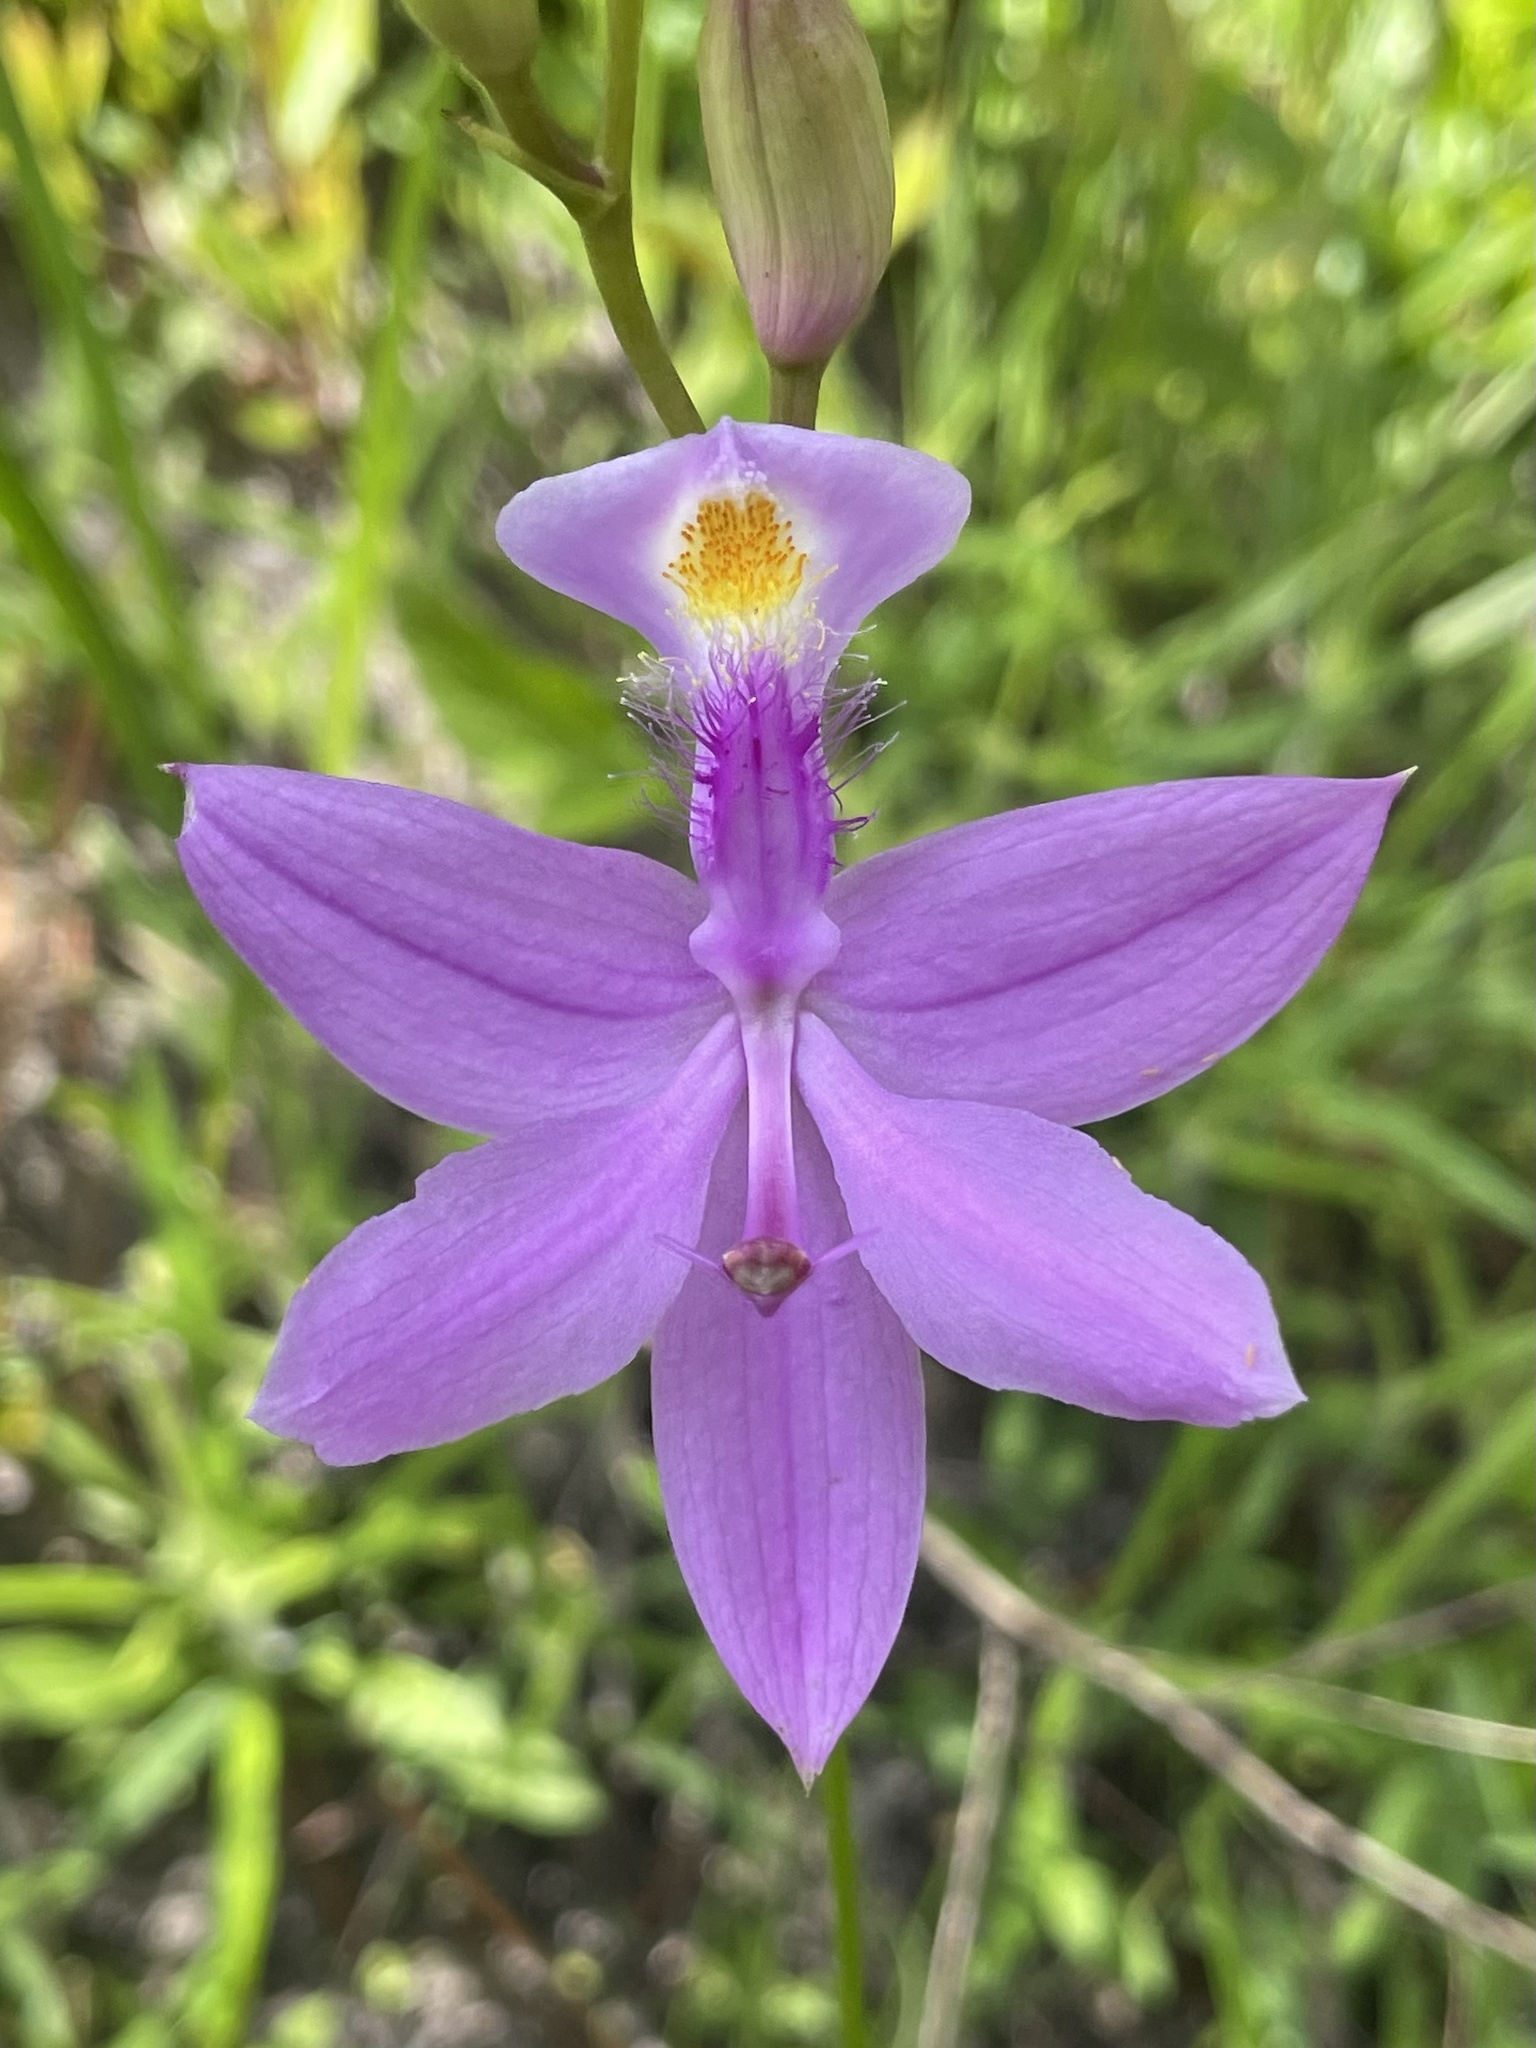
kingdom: Plantae
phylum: Tracheophyta
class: Liliopsida
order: Asparagales
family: Orchidaceae
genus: Calopogon
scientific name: Calopogon tuberosus
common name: Grass-pink
